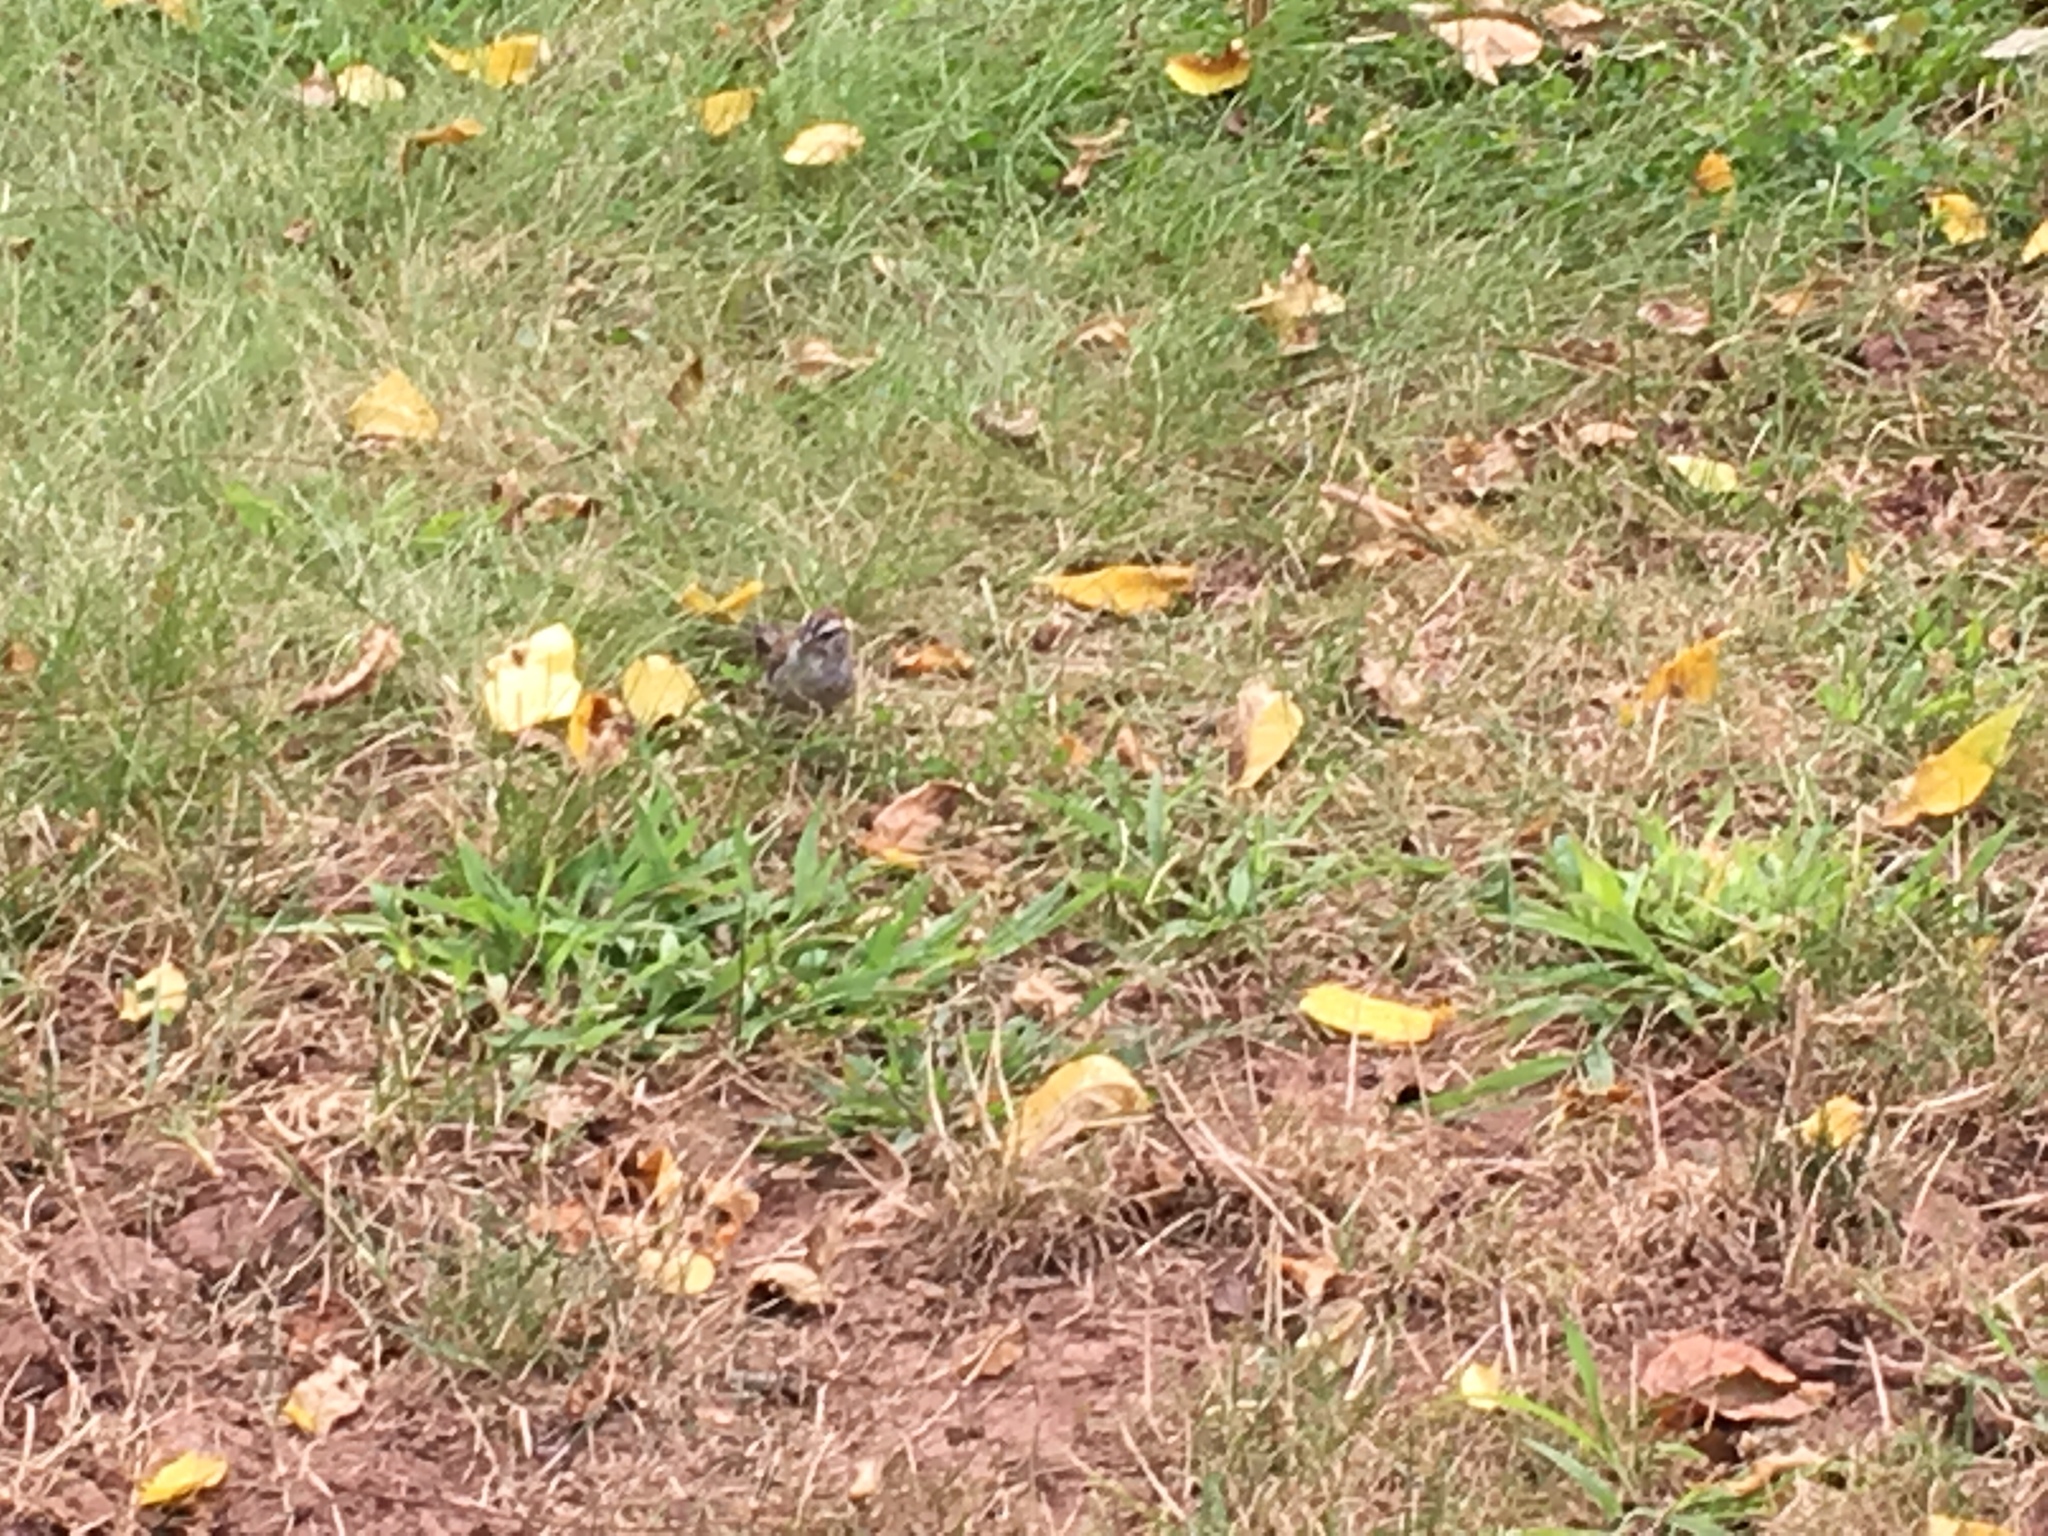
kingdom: Animalia
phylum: Chordata
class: Aves
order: Passeriformes
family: Passerellidae
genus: Spizella
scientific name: Spizella passerina
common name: Chipping sparrow
